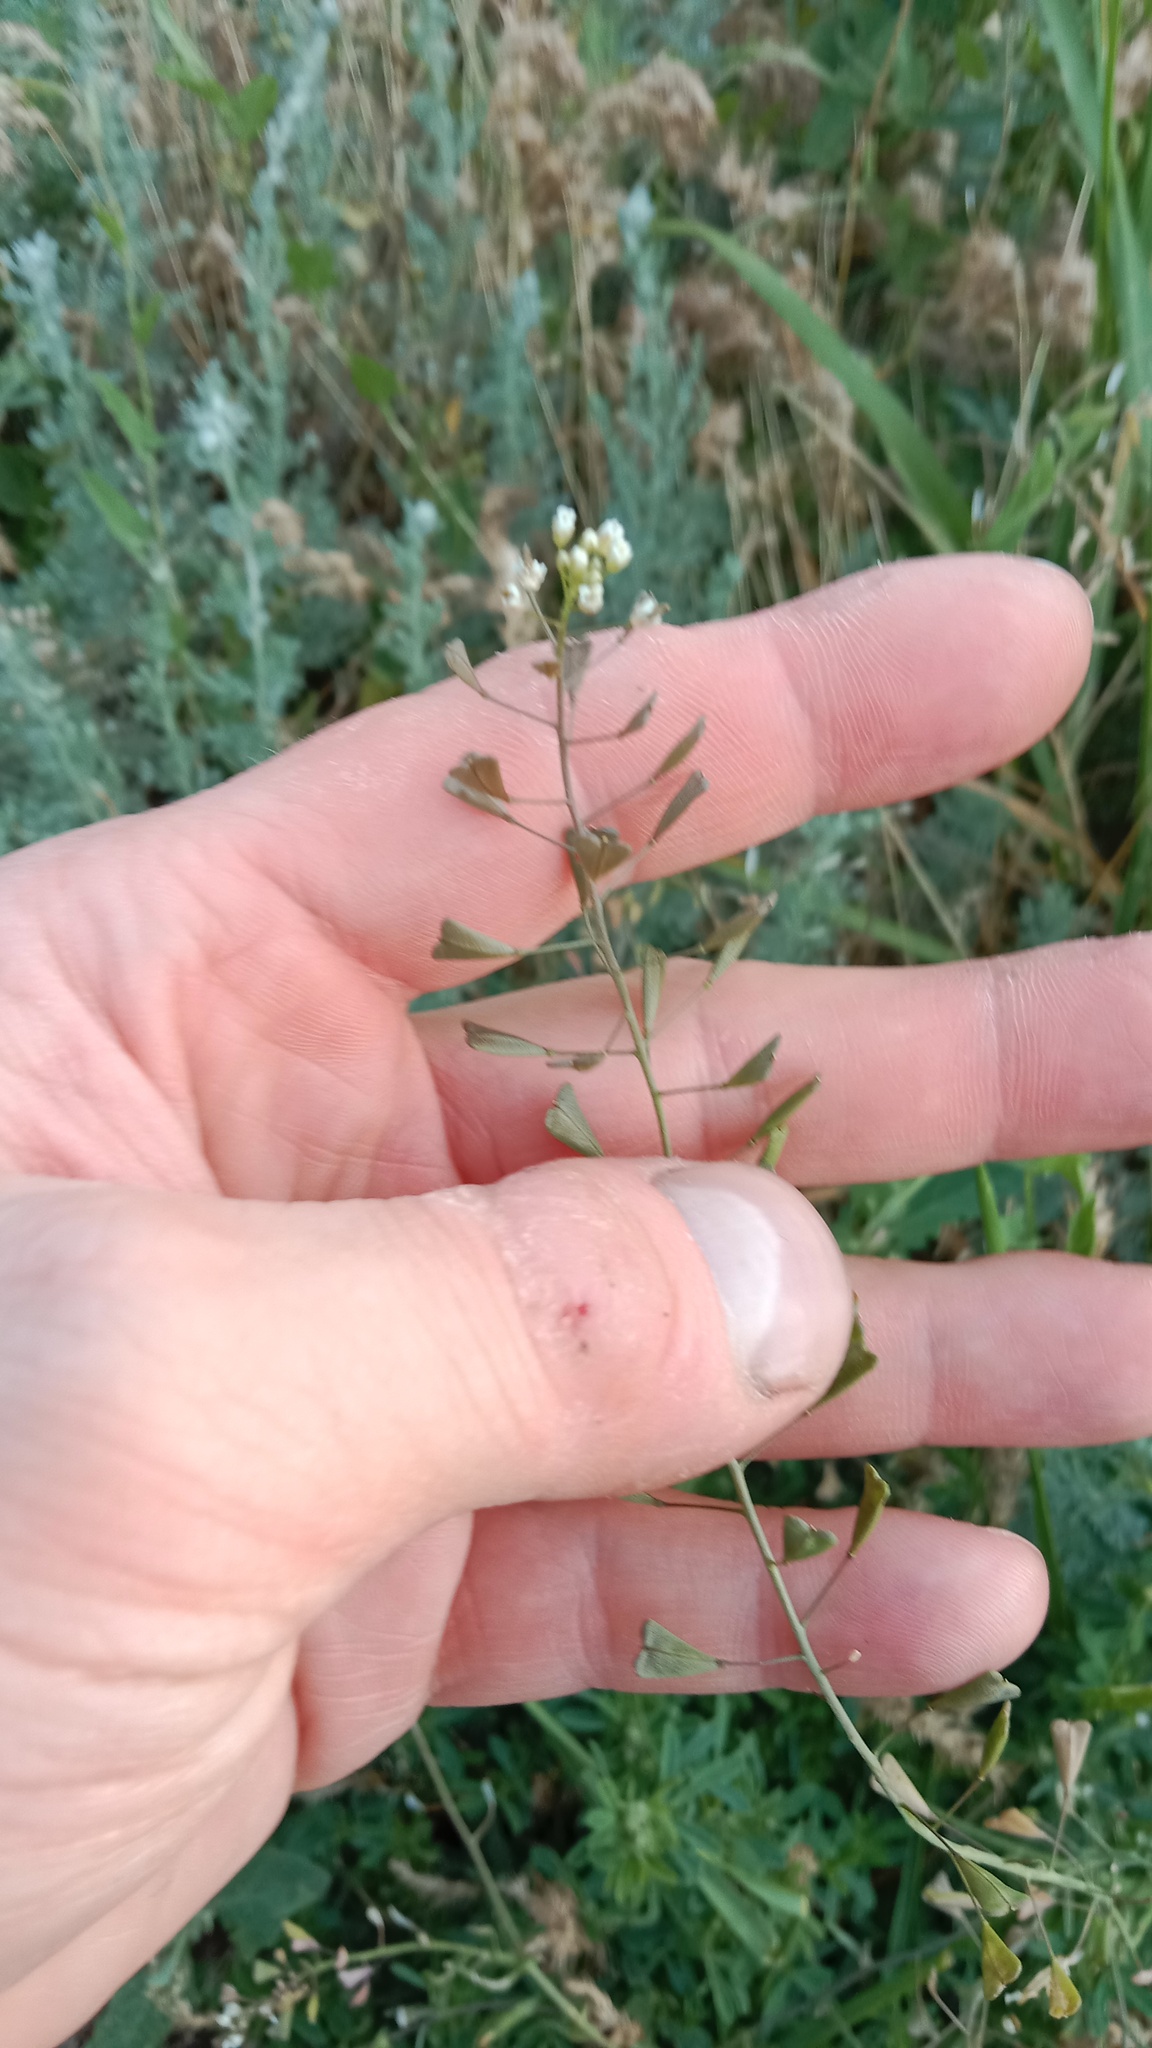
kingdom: Plantae
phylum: Tracheophyta
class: Magnoliopsida
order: Brassicales
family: Brassicaceae
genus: Capsella
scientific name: Capsella bursa-pastoris
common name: Shepherd's purse
